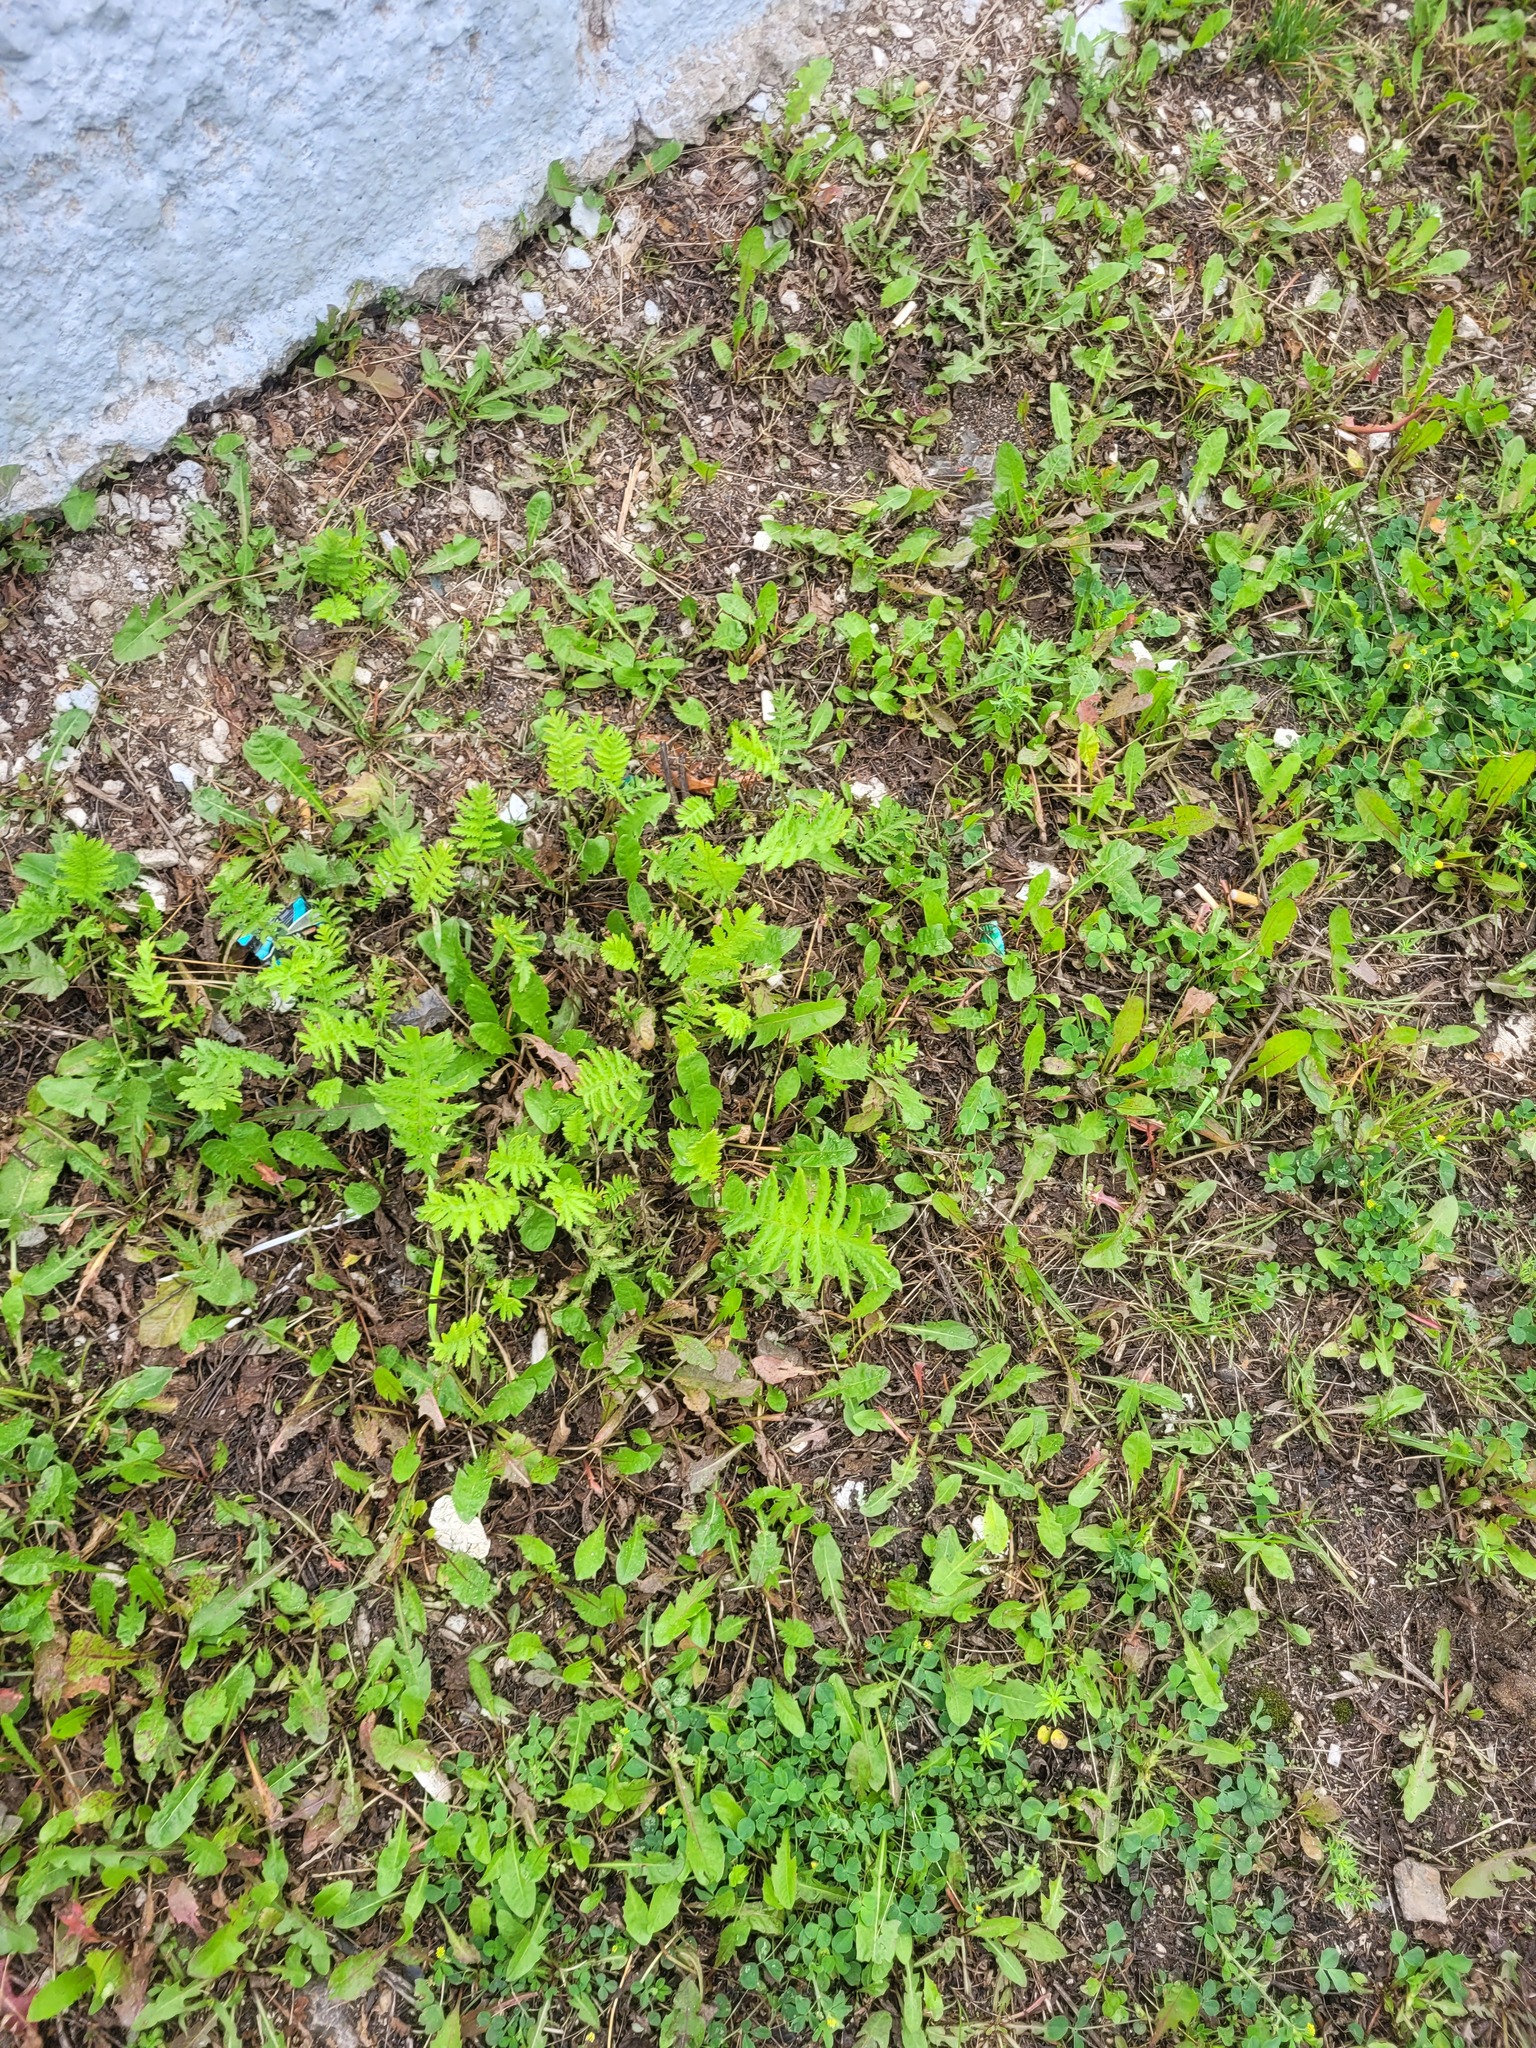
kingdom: Plantae
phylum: Tracheophyta
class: Magnoliopsida
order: Asterales
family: Asteraceae
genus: Tanacetum
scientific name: Tanacetum vulgare
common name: Common tansy
